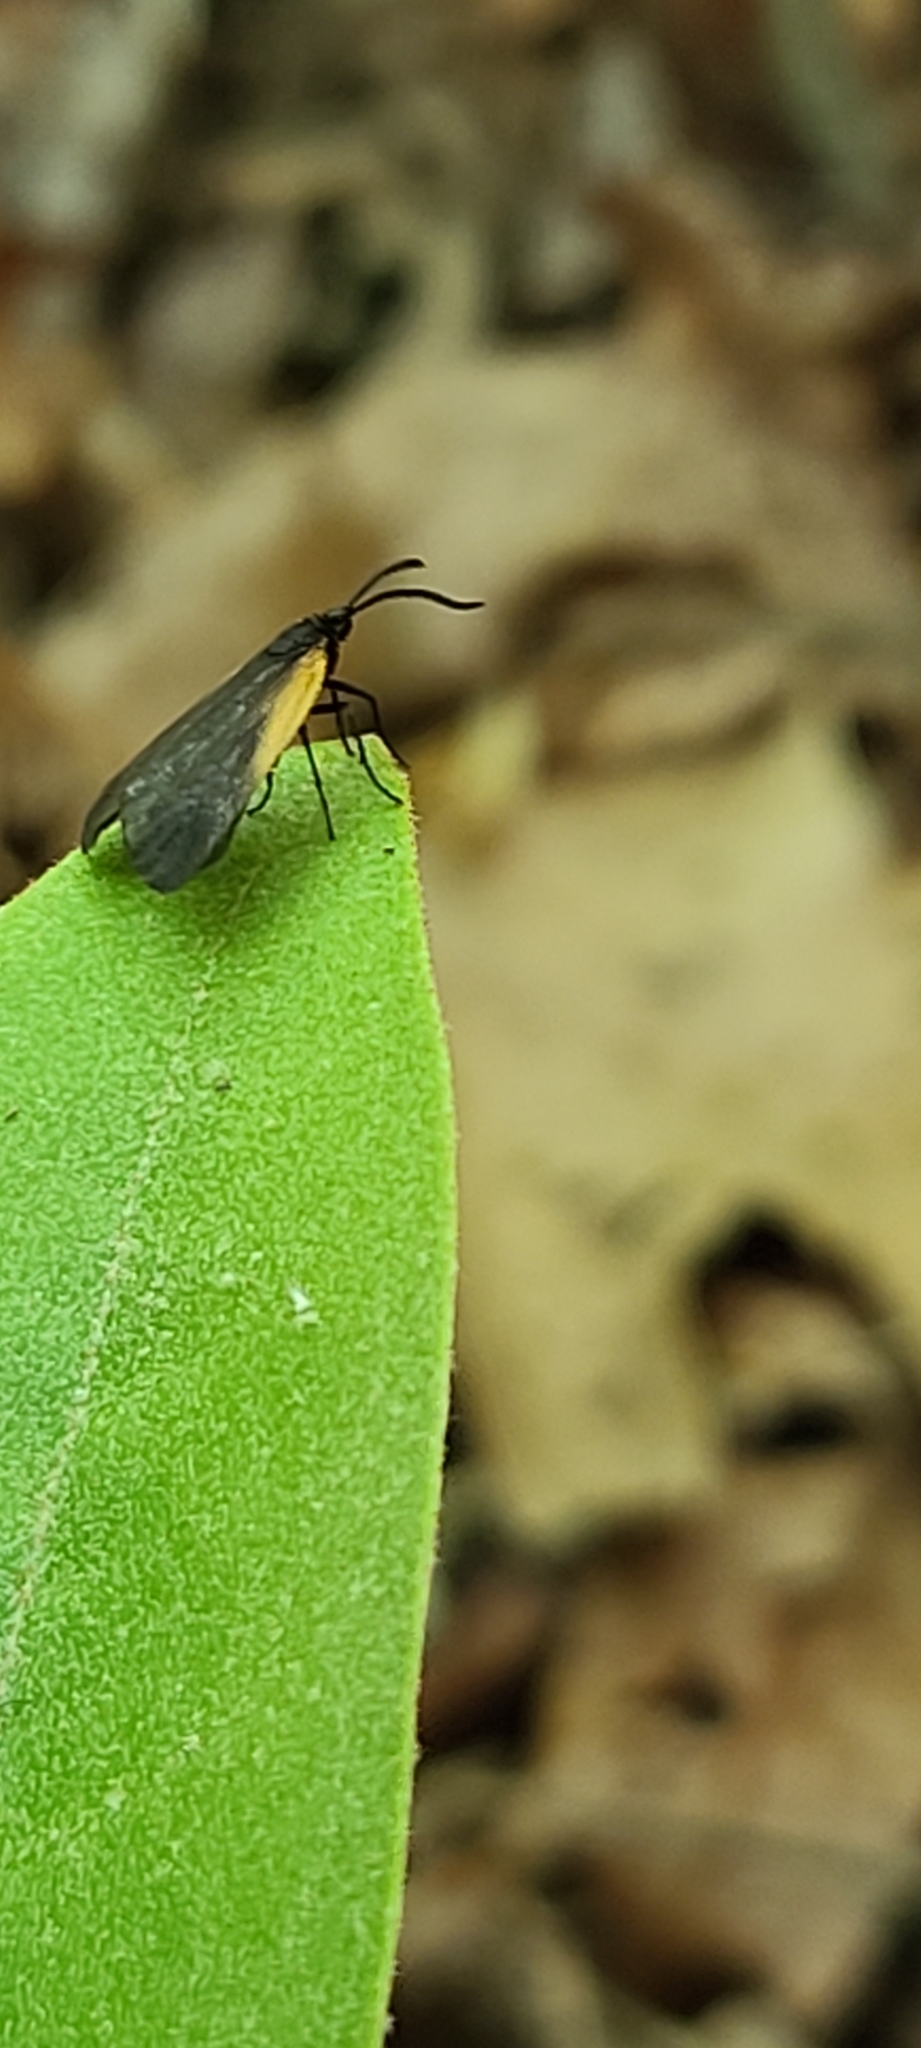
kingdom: Animalia
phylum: Arthropoda
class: Insecta
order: Lepidoptera
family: Zygaenidae
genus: Malthaca
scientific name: Malthaca dimidiata
